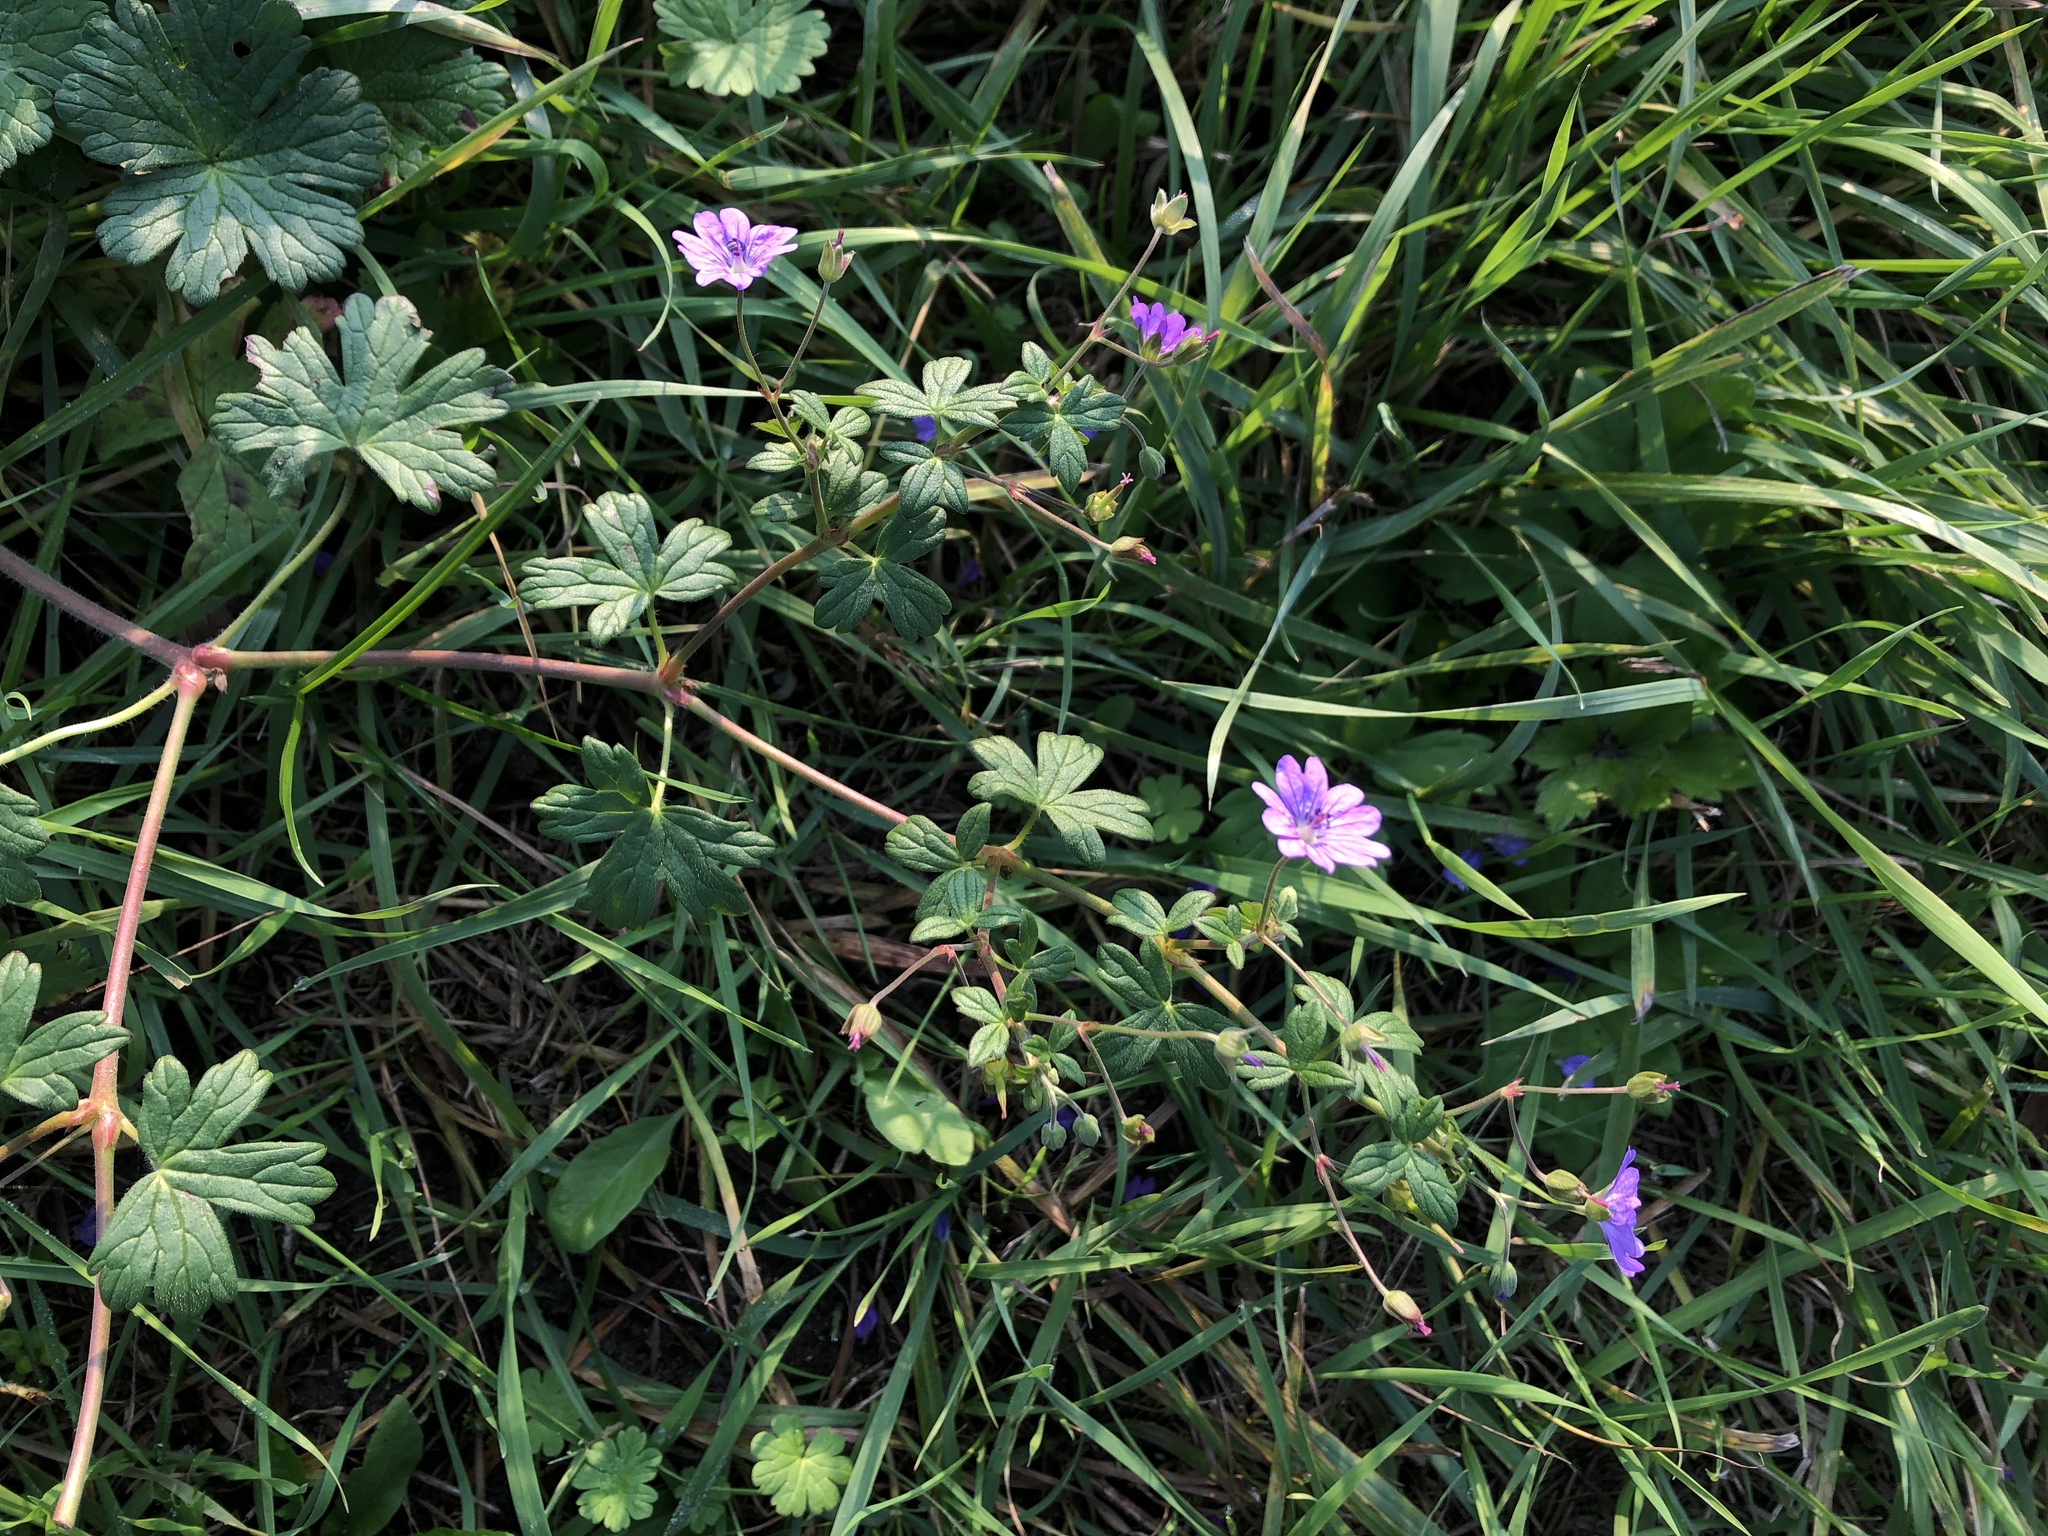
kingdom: Plantae
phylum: Tracheophyta
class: Magnoliopsida
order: Geraniales
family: Geraniaceae
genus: Geranium
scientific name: Geranium pyrenaicum
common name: Hedgerow crane's-bill
